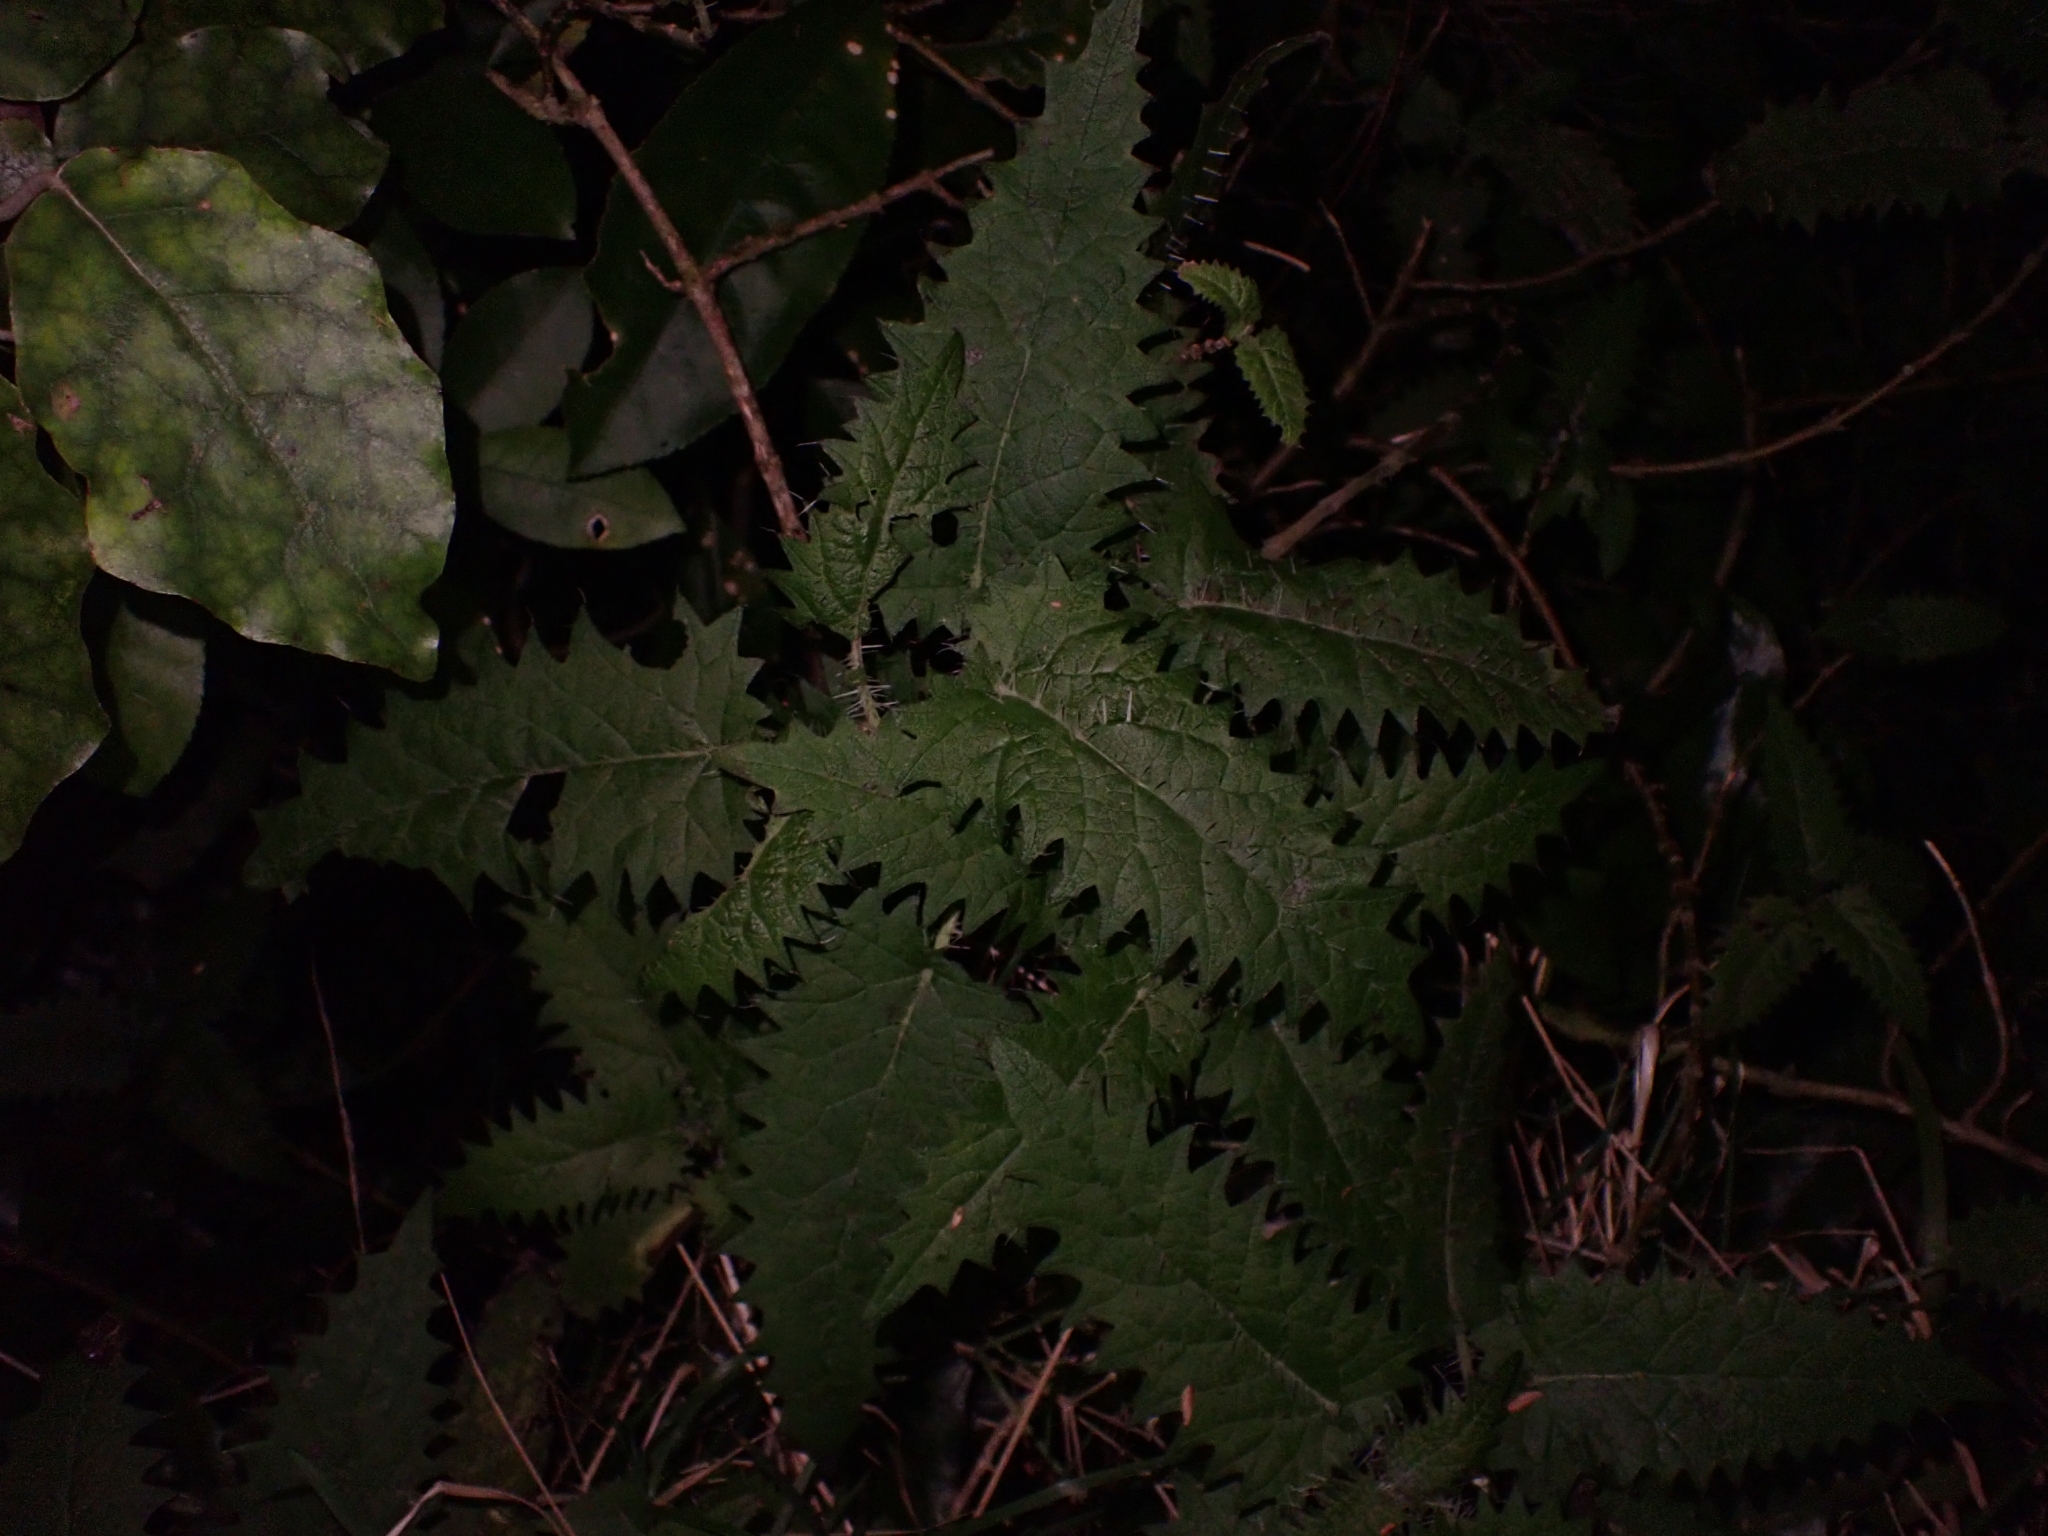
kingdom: Plantae
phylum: Tracheophyta
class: Magnoliopsida
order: Rosales
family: Urticaceae
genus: Urtica
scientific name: Urtica ferox
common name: Tree nettle
